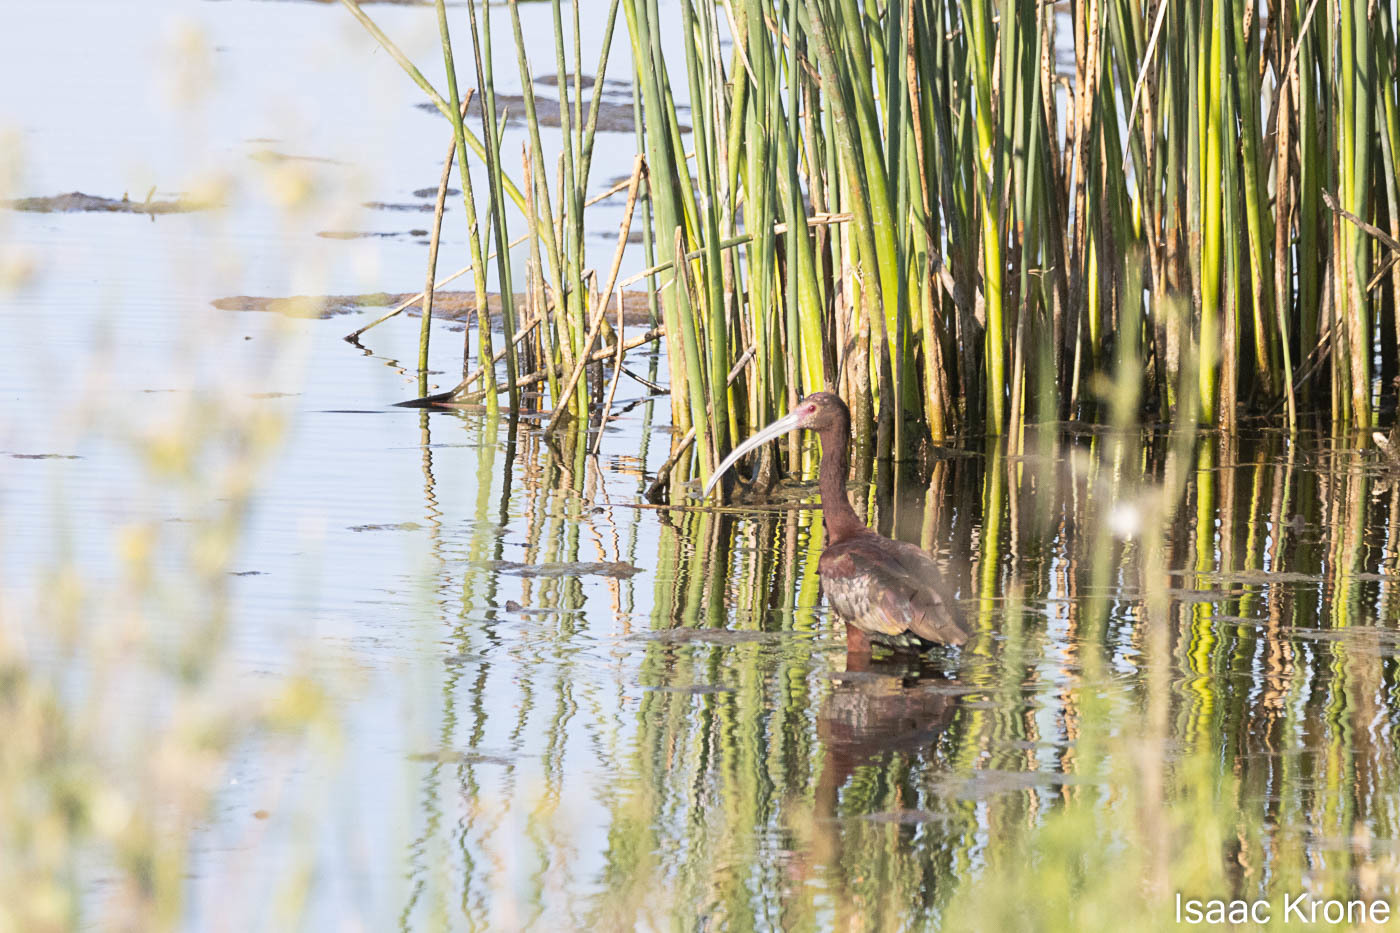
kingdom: Animalia
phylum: Chordata
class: Aves
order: Pelecaniformes
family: Threskiornithidae
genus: Plegadis
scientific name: Plegadis chihi
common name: White-faced ibis
